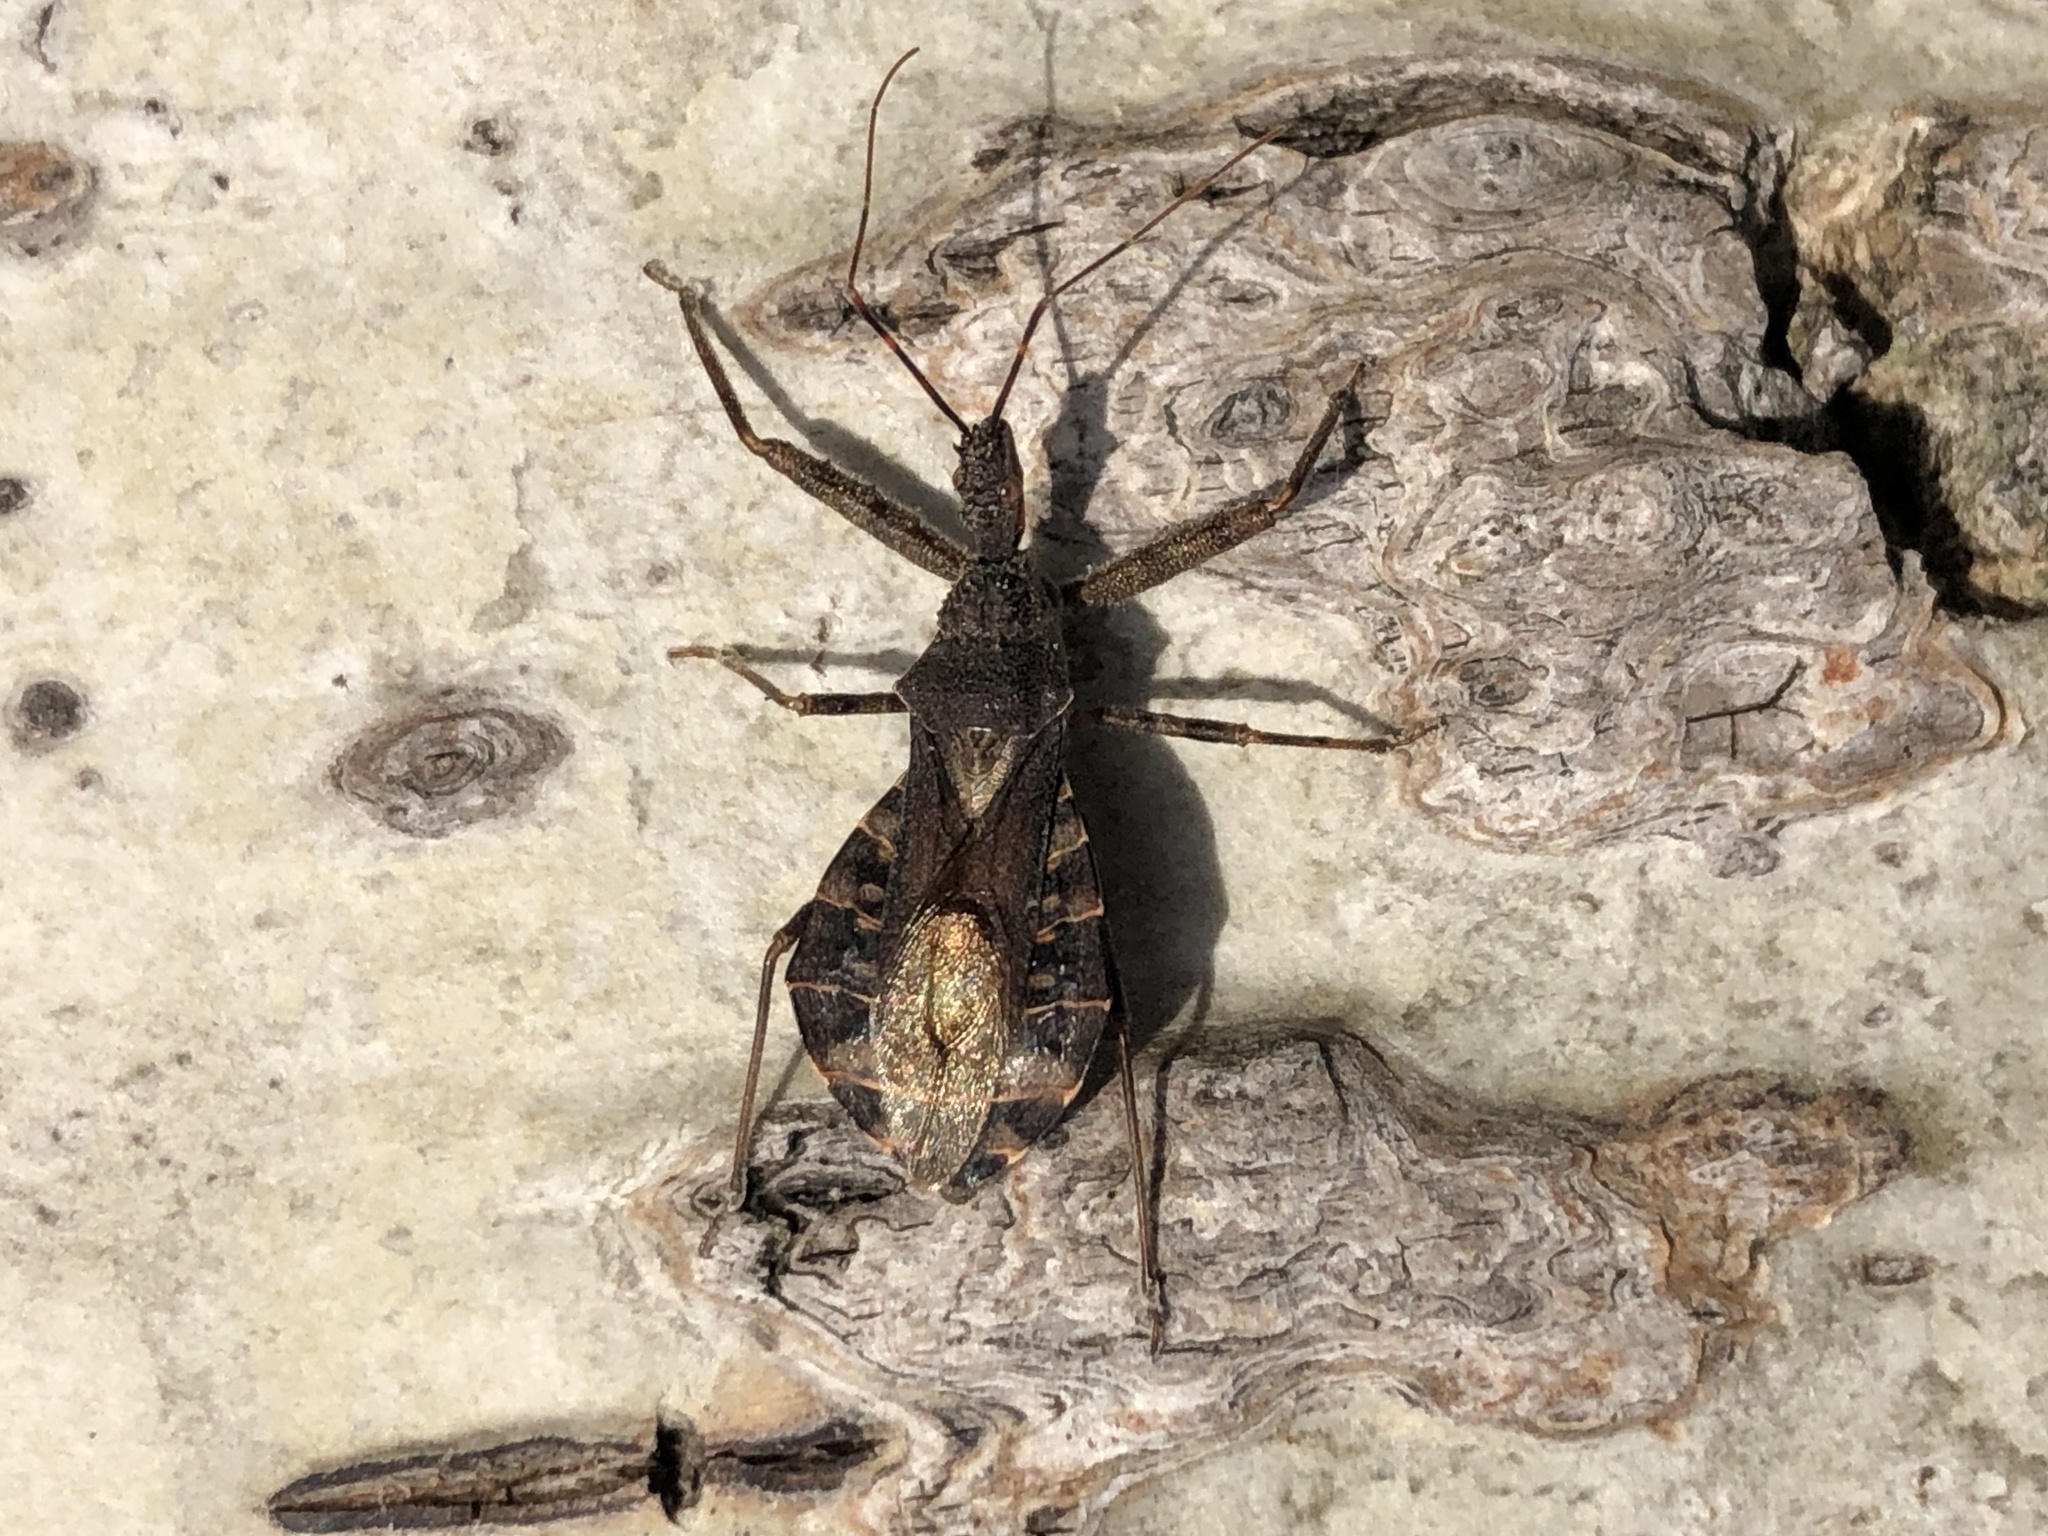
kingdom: Animalia
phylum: Arthropoda
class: Insecta
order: Hemiptera
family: Reduviidae
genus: Acholla
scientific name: Acholla multispinosa
